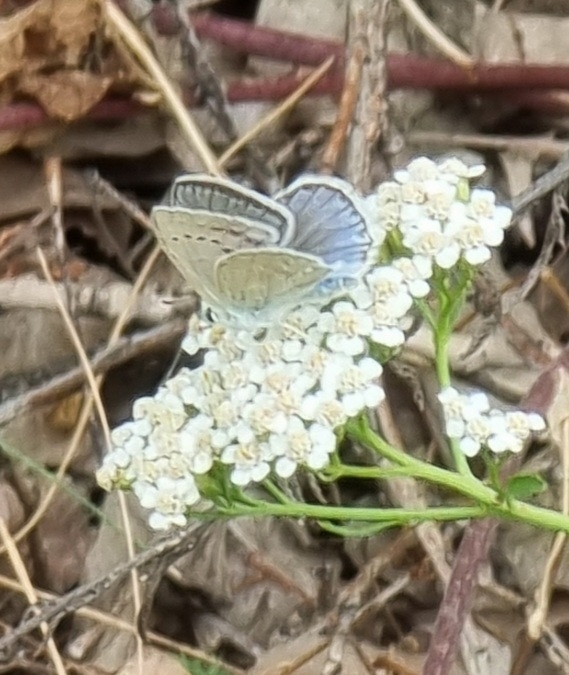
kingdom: Animalia
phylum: Arthropoda
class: Insecta
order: Lepidoptera
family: Lycaenidae
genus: Polyommatus
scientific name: Polyommatus daphnis
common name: Meleager's blue
